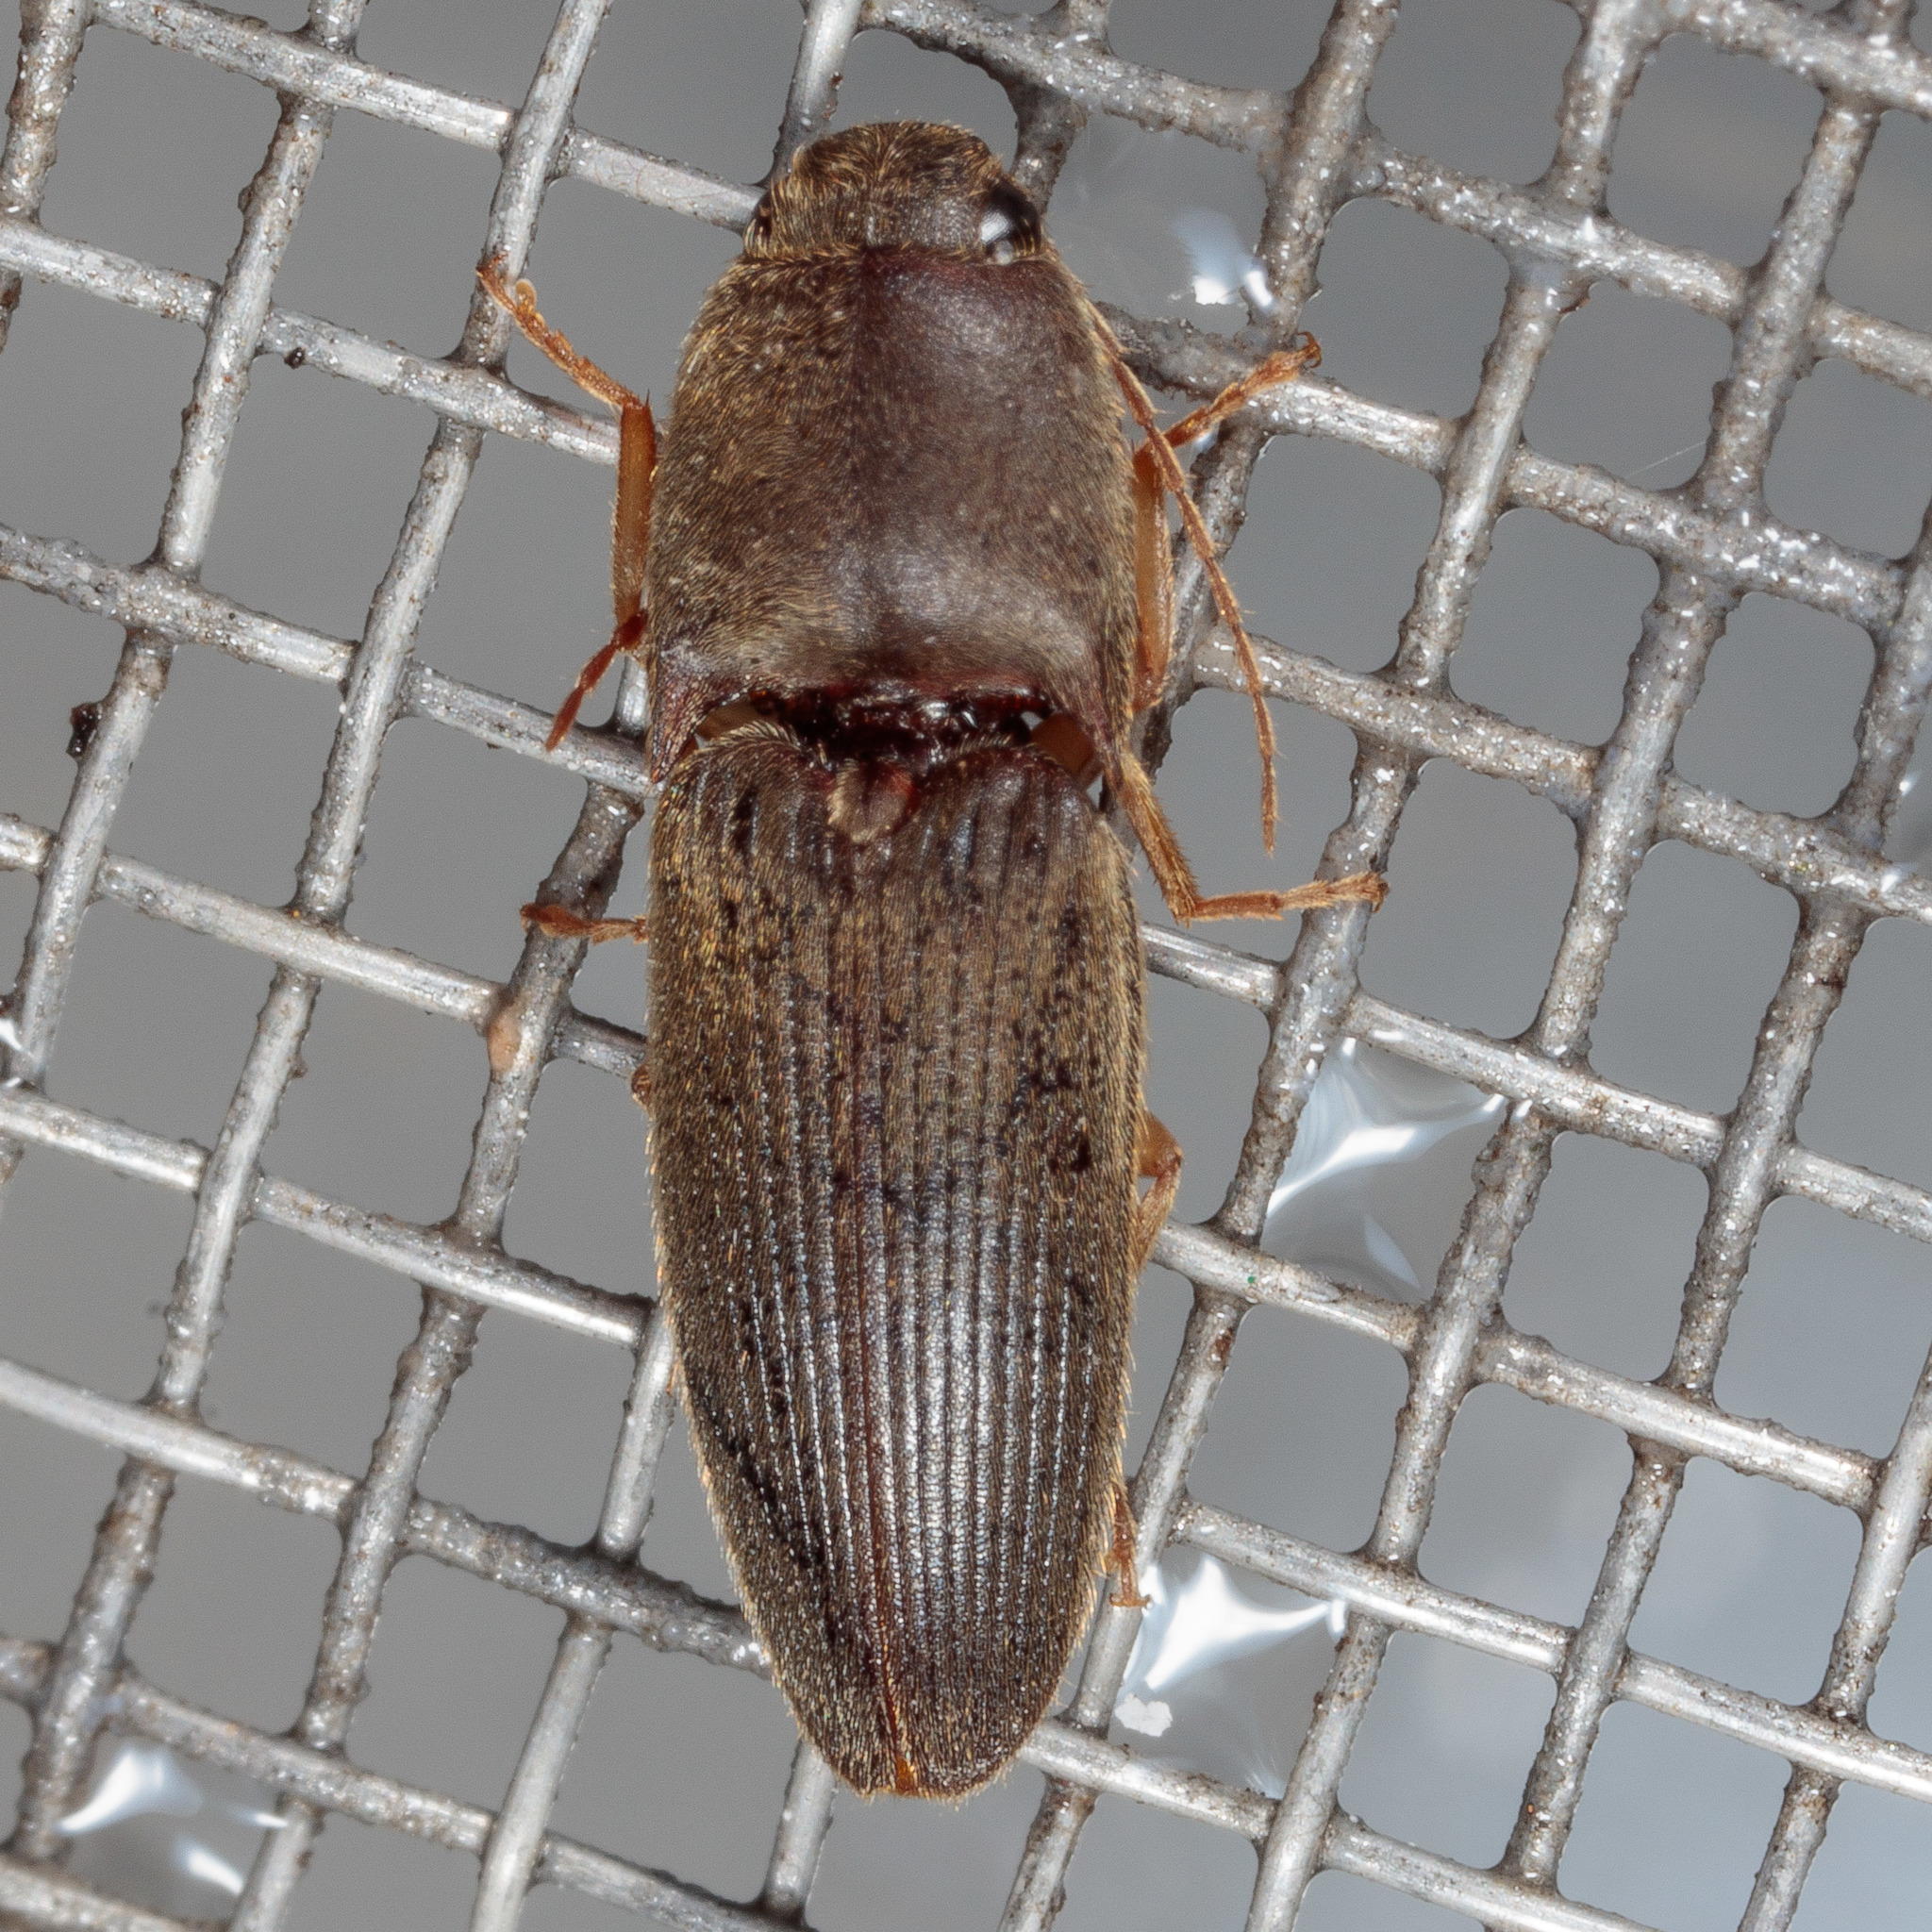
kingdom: Animalia
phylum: Arthropoda
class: Insecta
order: Coleoptera
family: Elateridae
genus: Conoderus
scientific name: Conoderus exsul
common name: Click beetle
